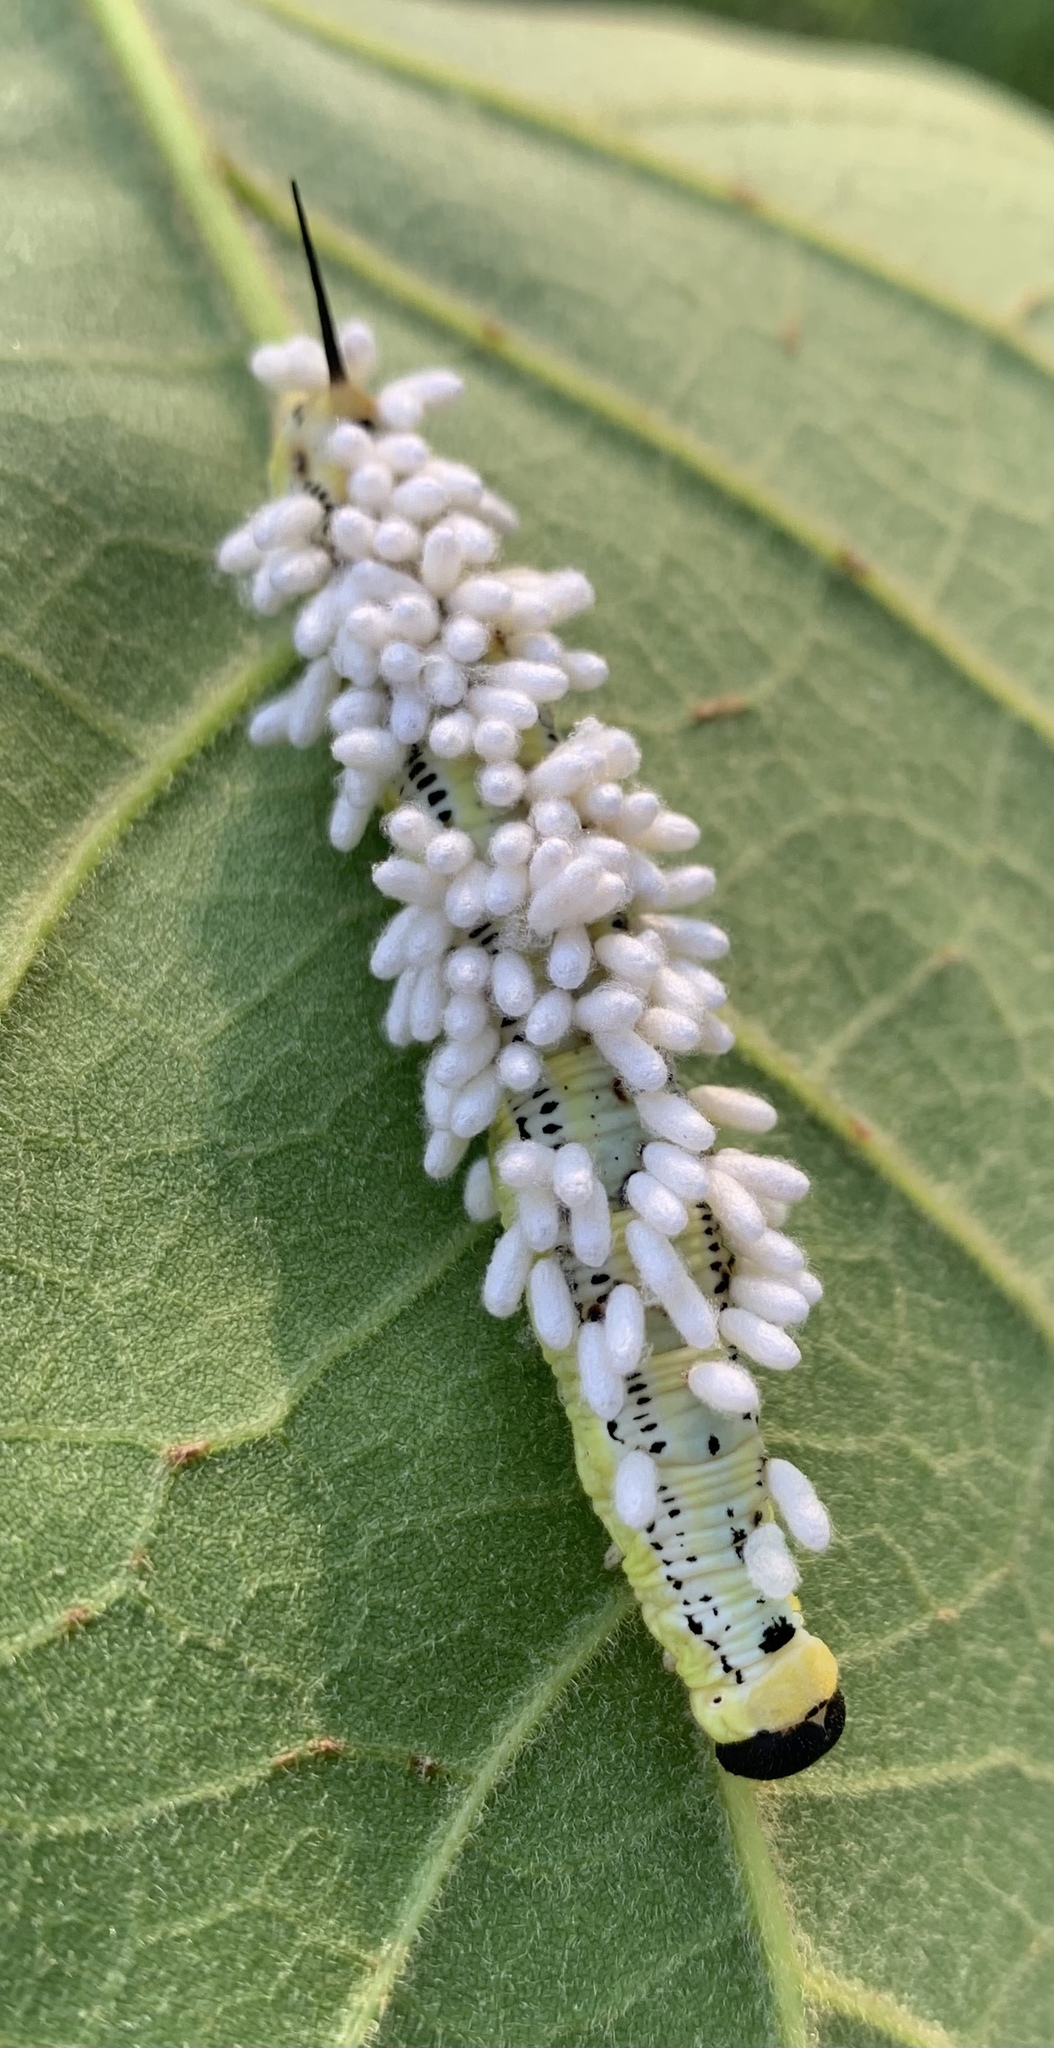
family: Polydnaviriformidae
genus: Bracoviriform
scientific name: Bracoviriform congregatae
